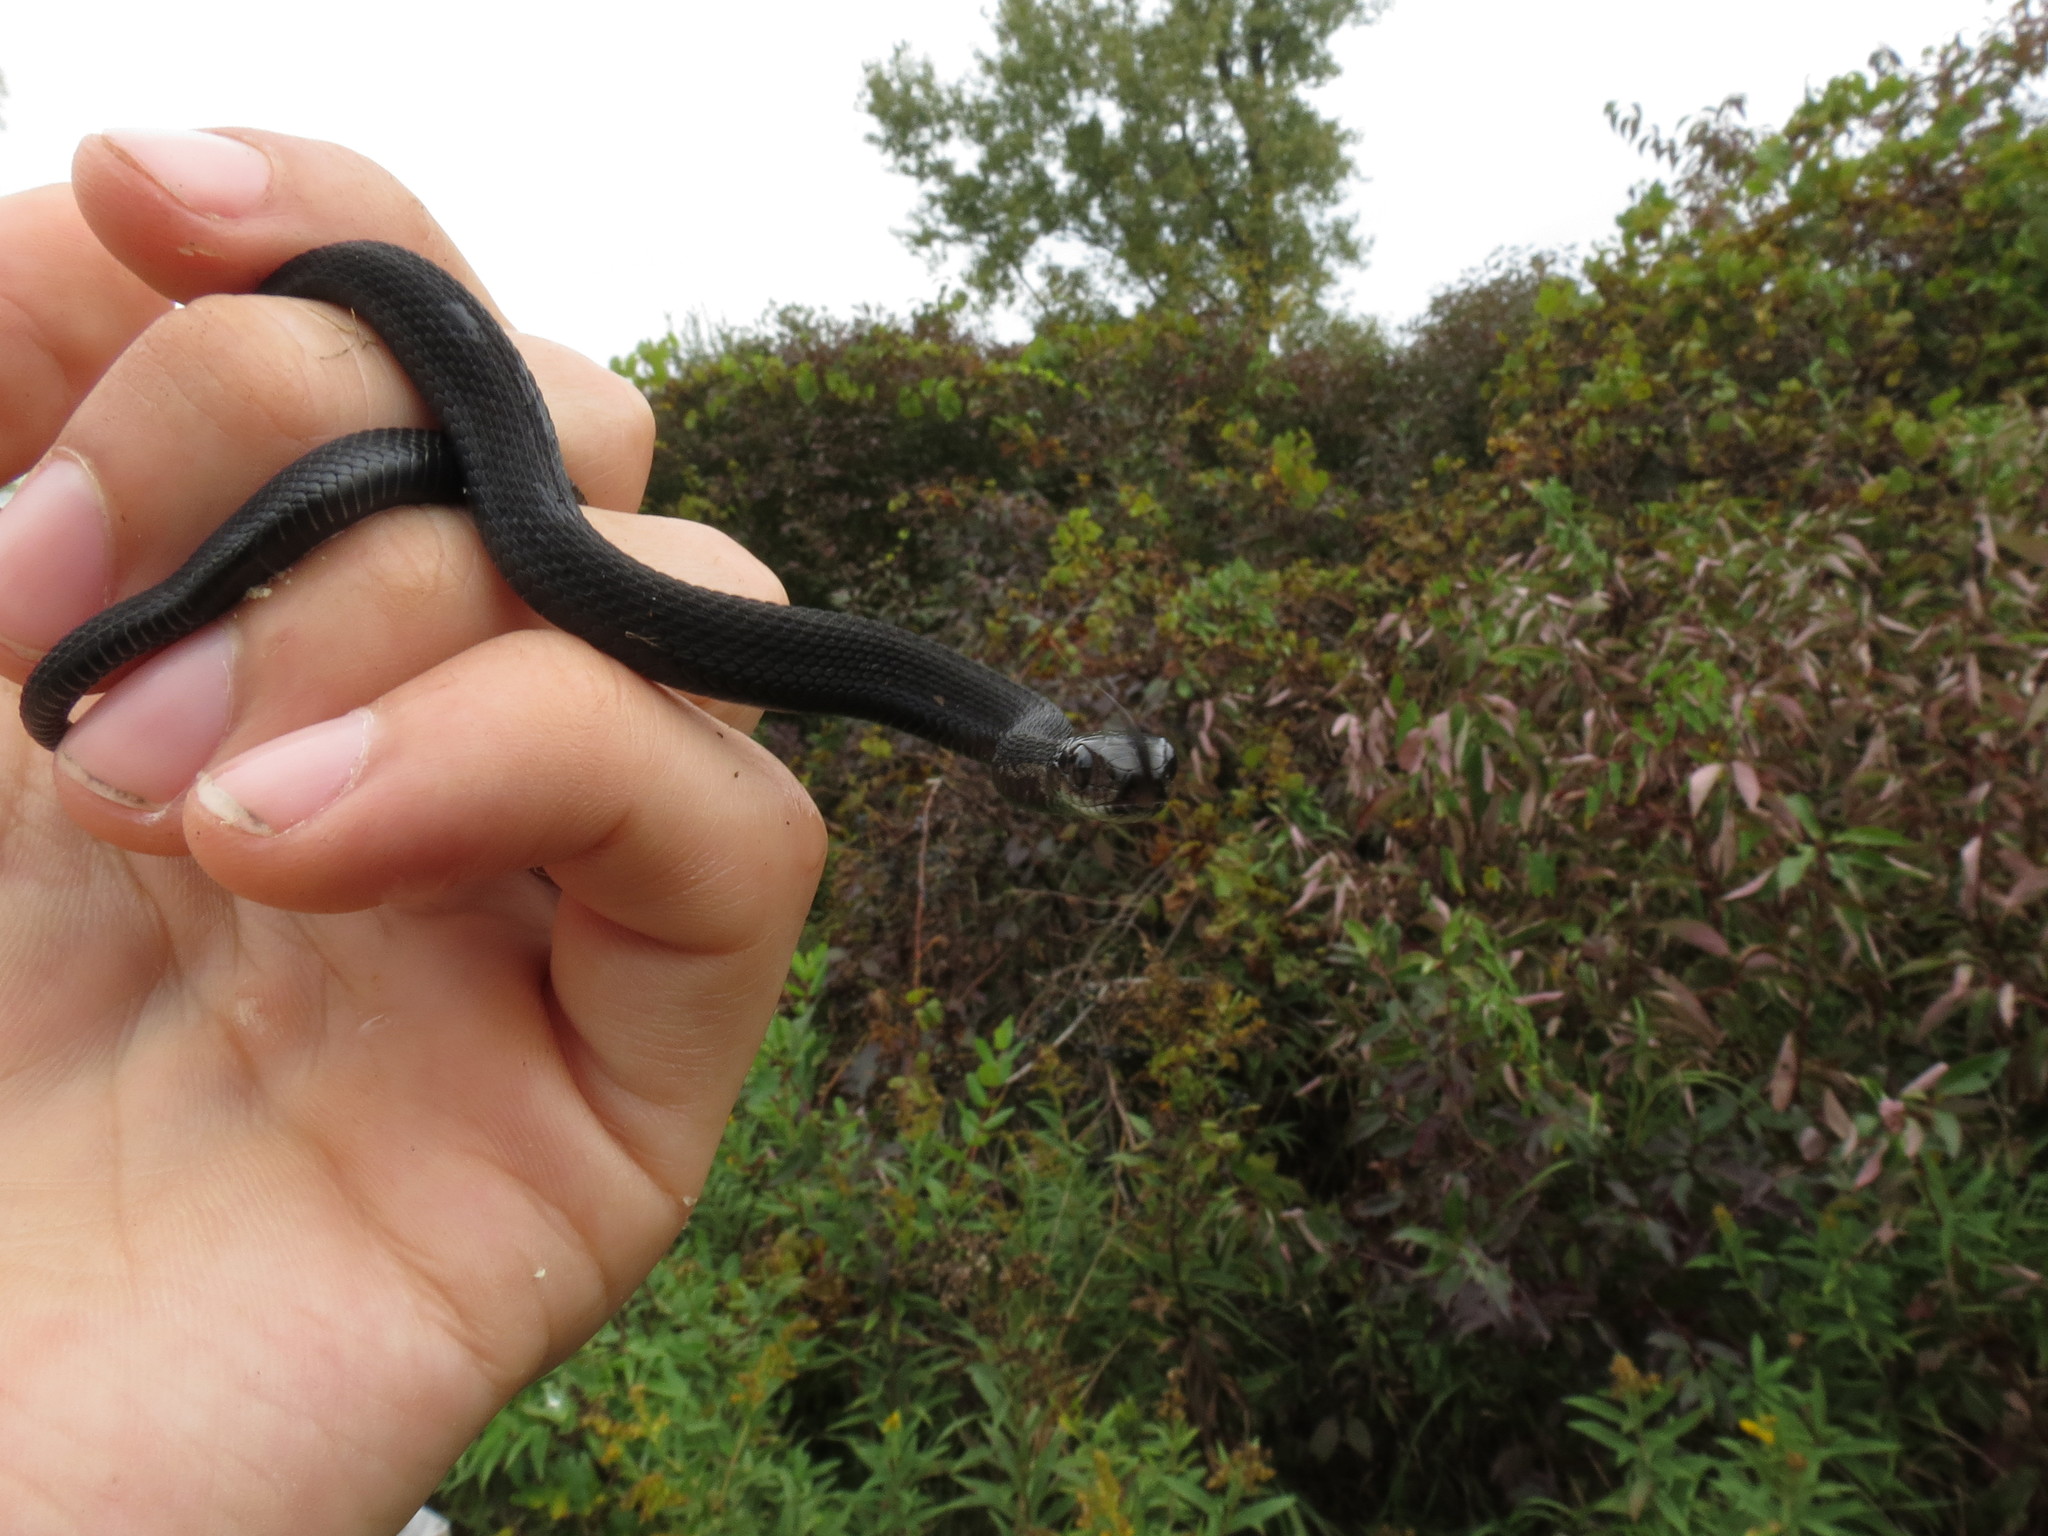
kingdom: Animalia
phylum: Chordata
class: Squamata
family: Colubridae
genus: Thamnophis
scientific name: Thamnophis sirtalis
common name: Common garter snake
